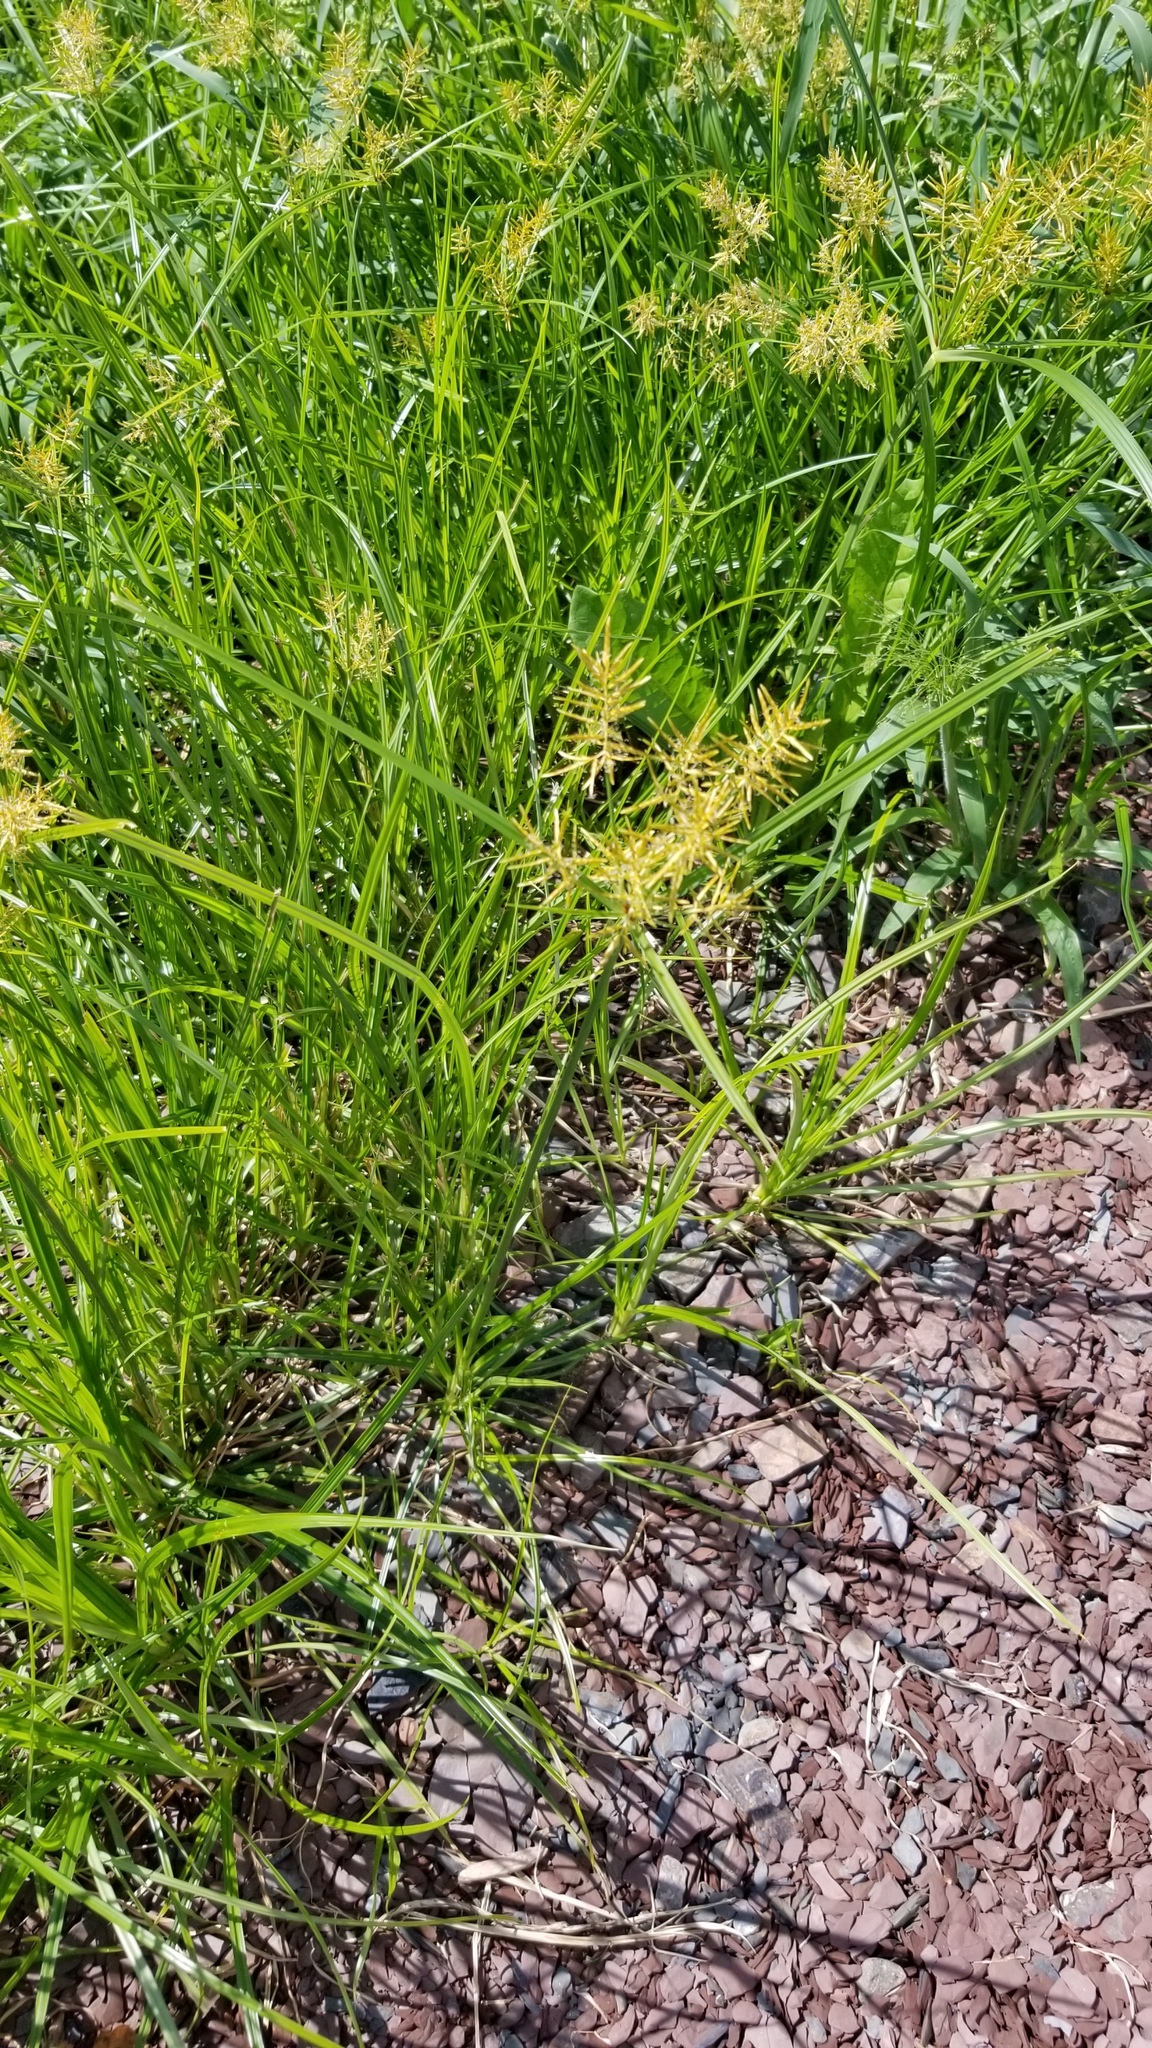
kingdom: Plantae
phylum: Tracheophyta
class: Liliopsida
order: Poales
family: Cyperaceae
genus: Cyperus
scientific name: Cyperus esculentus
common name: Yellow nutsedge
